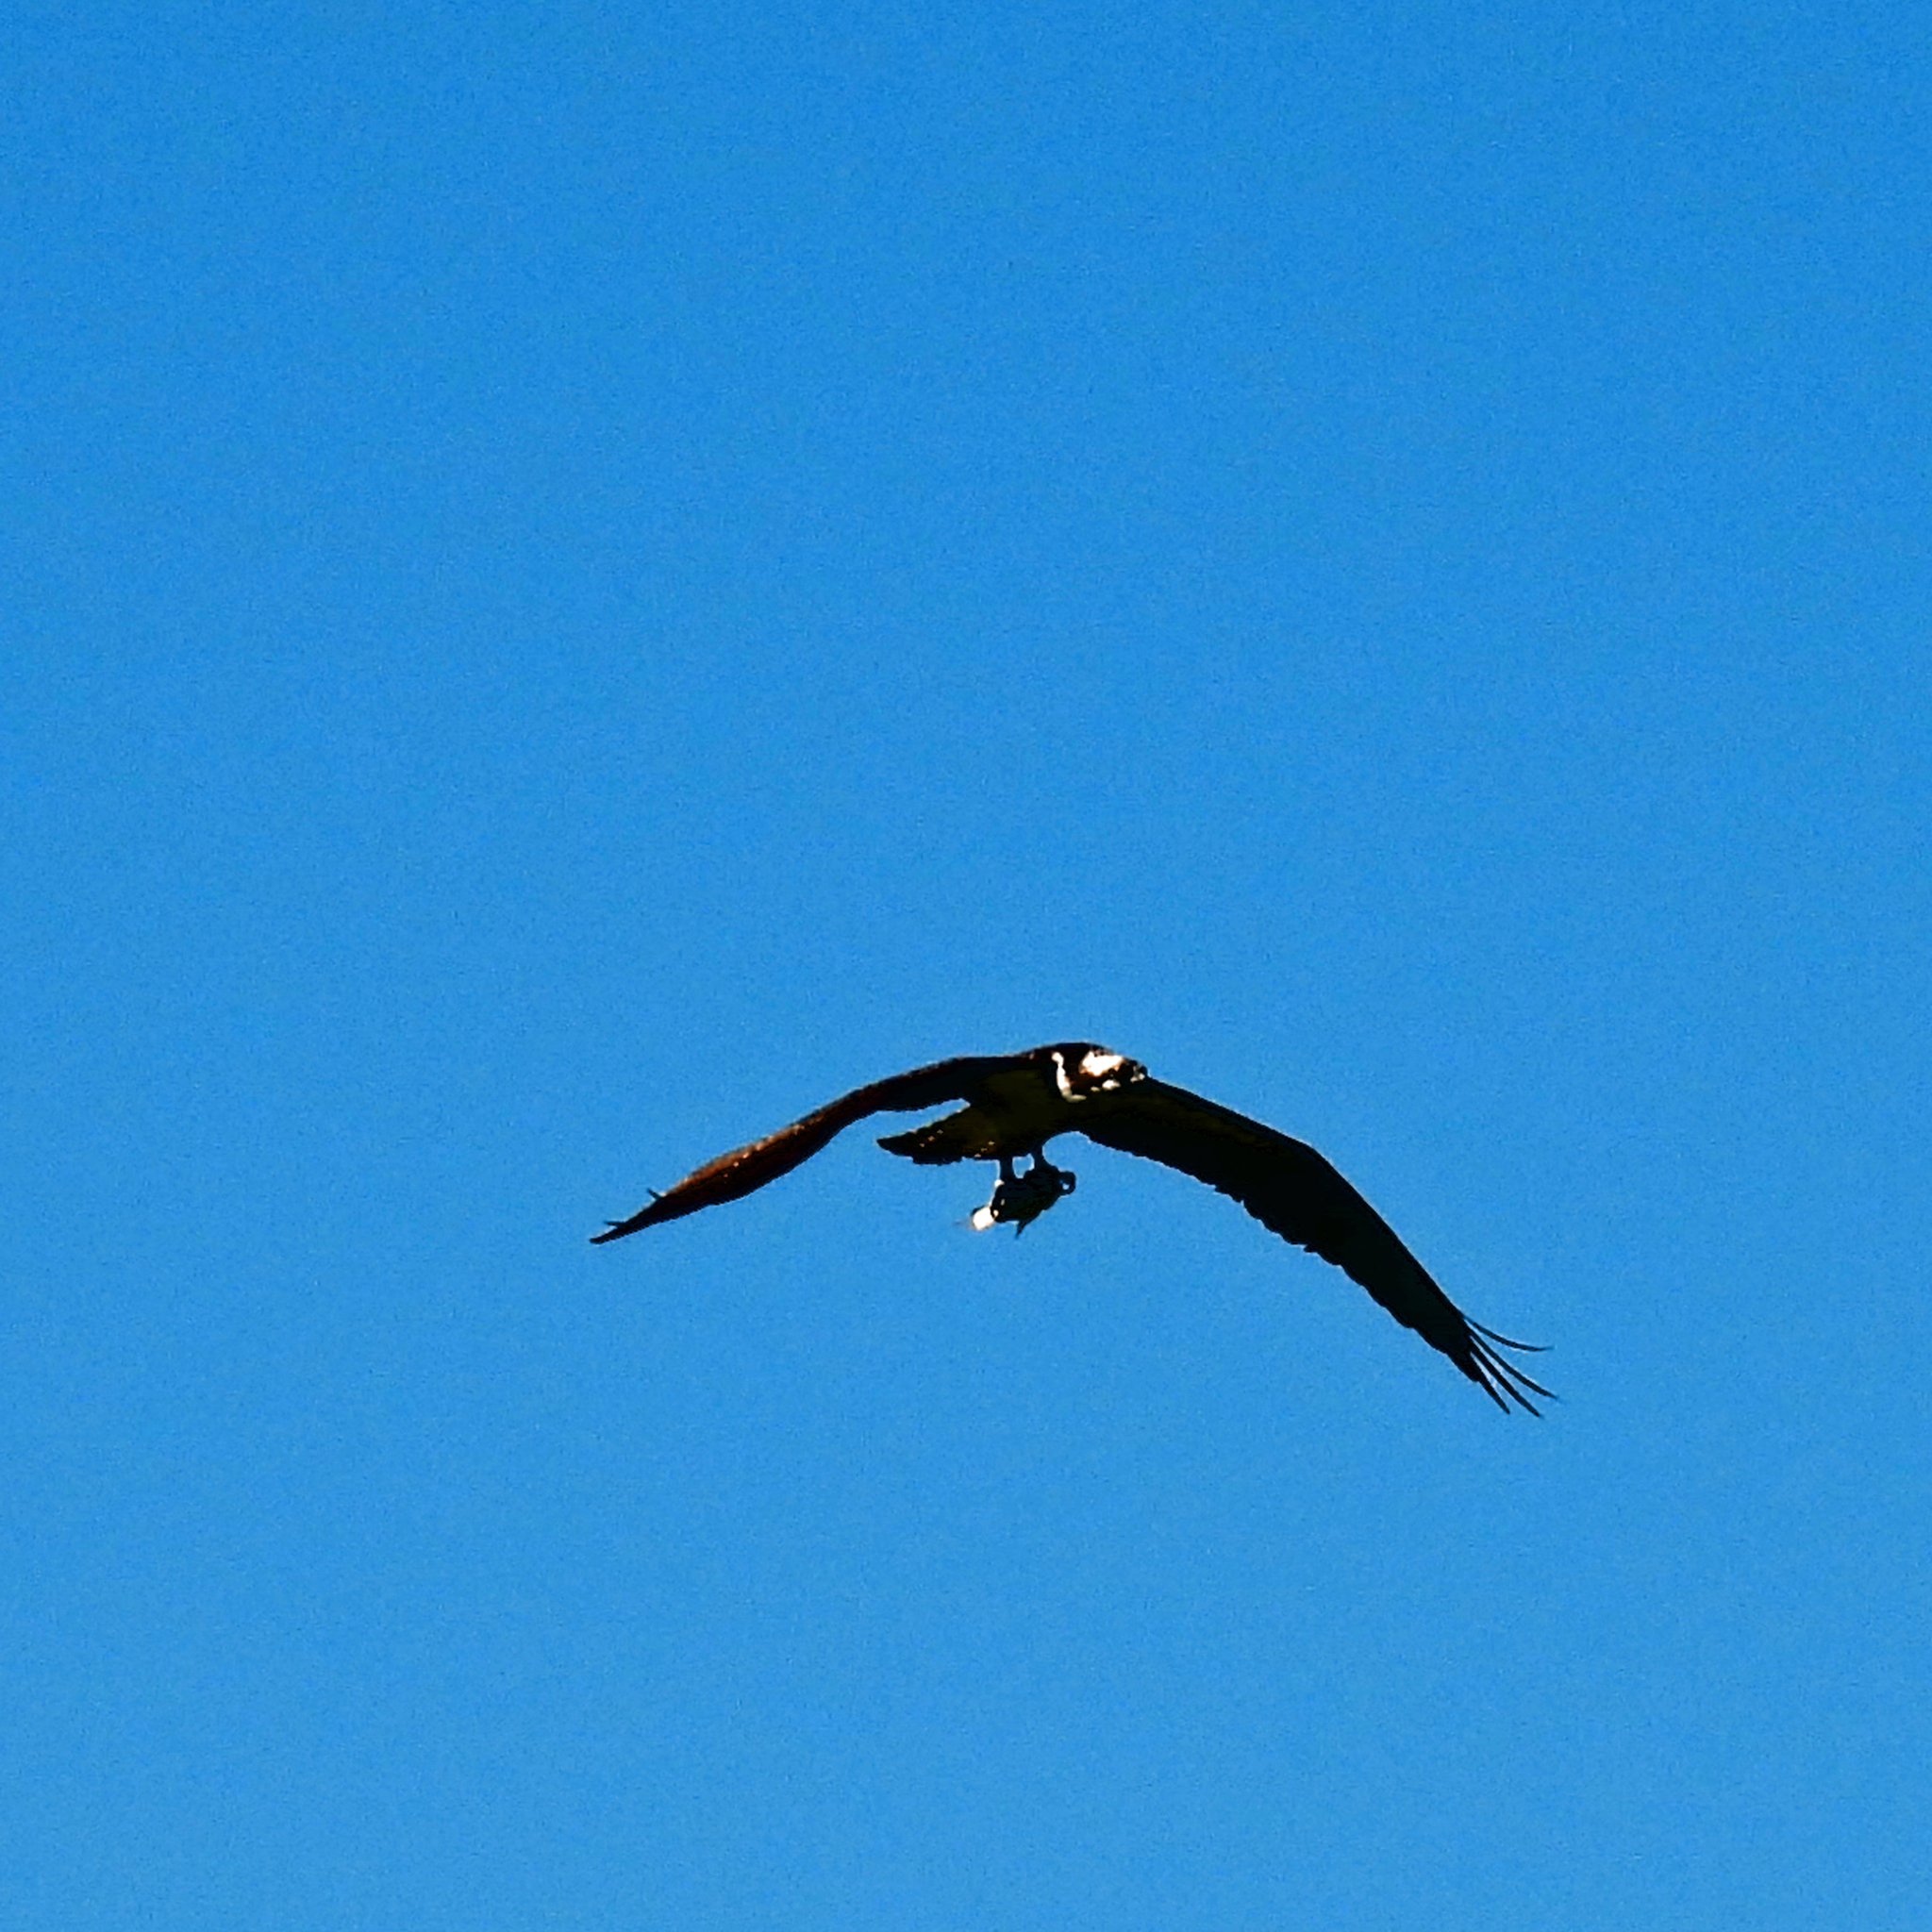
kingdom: Animalia
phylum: Chordata
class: Aves
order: Accipitriformes
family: Pandionidae
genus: Pandion
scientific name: Pandion haliaetus
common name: Osprey
